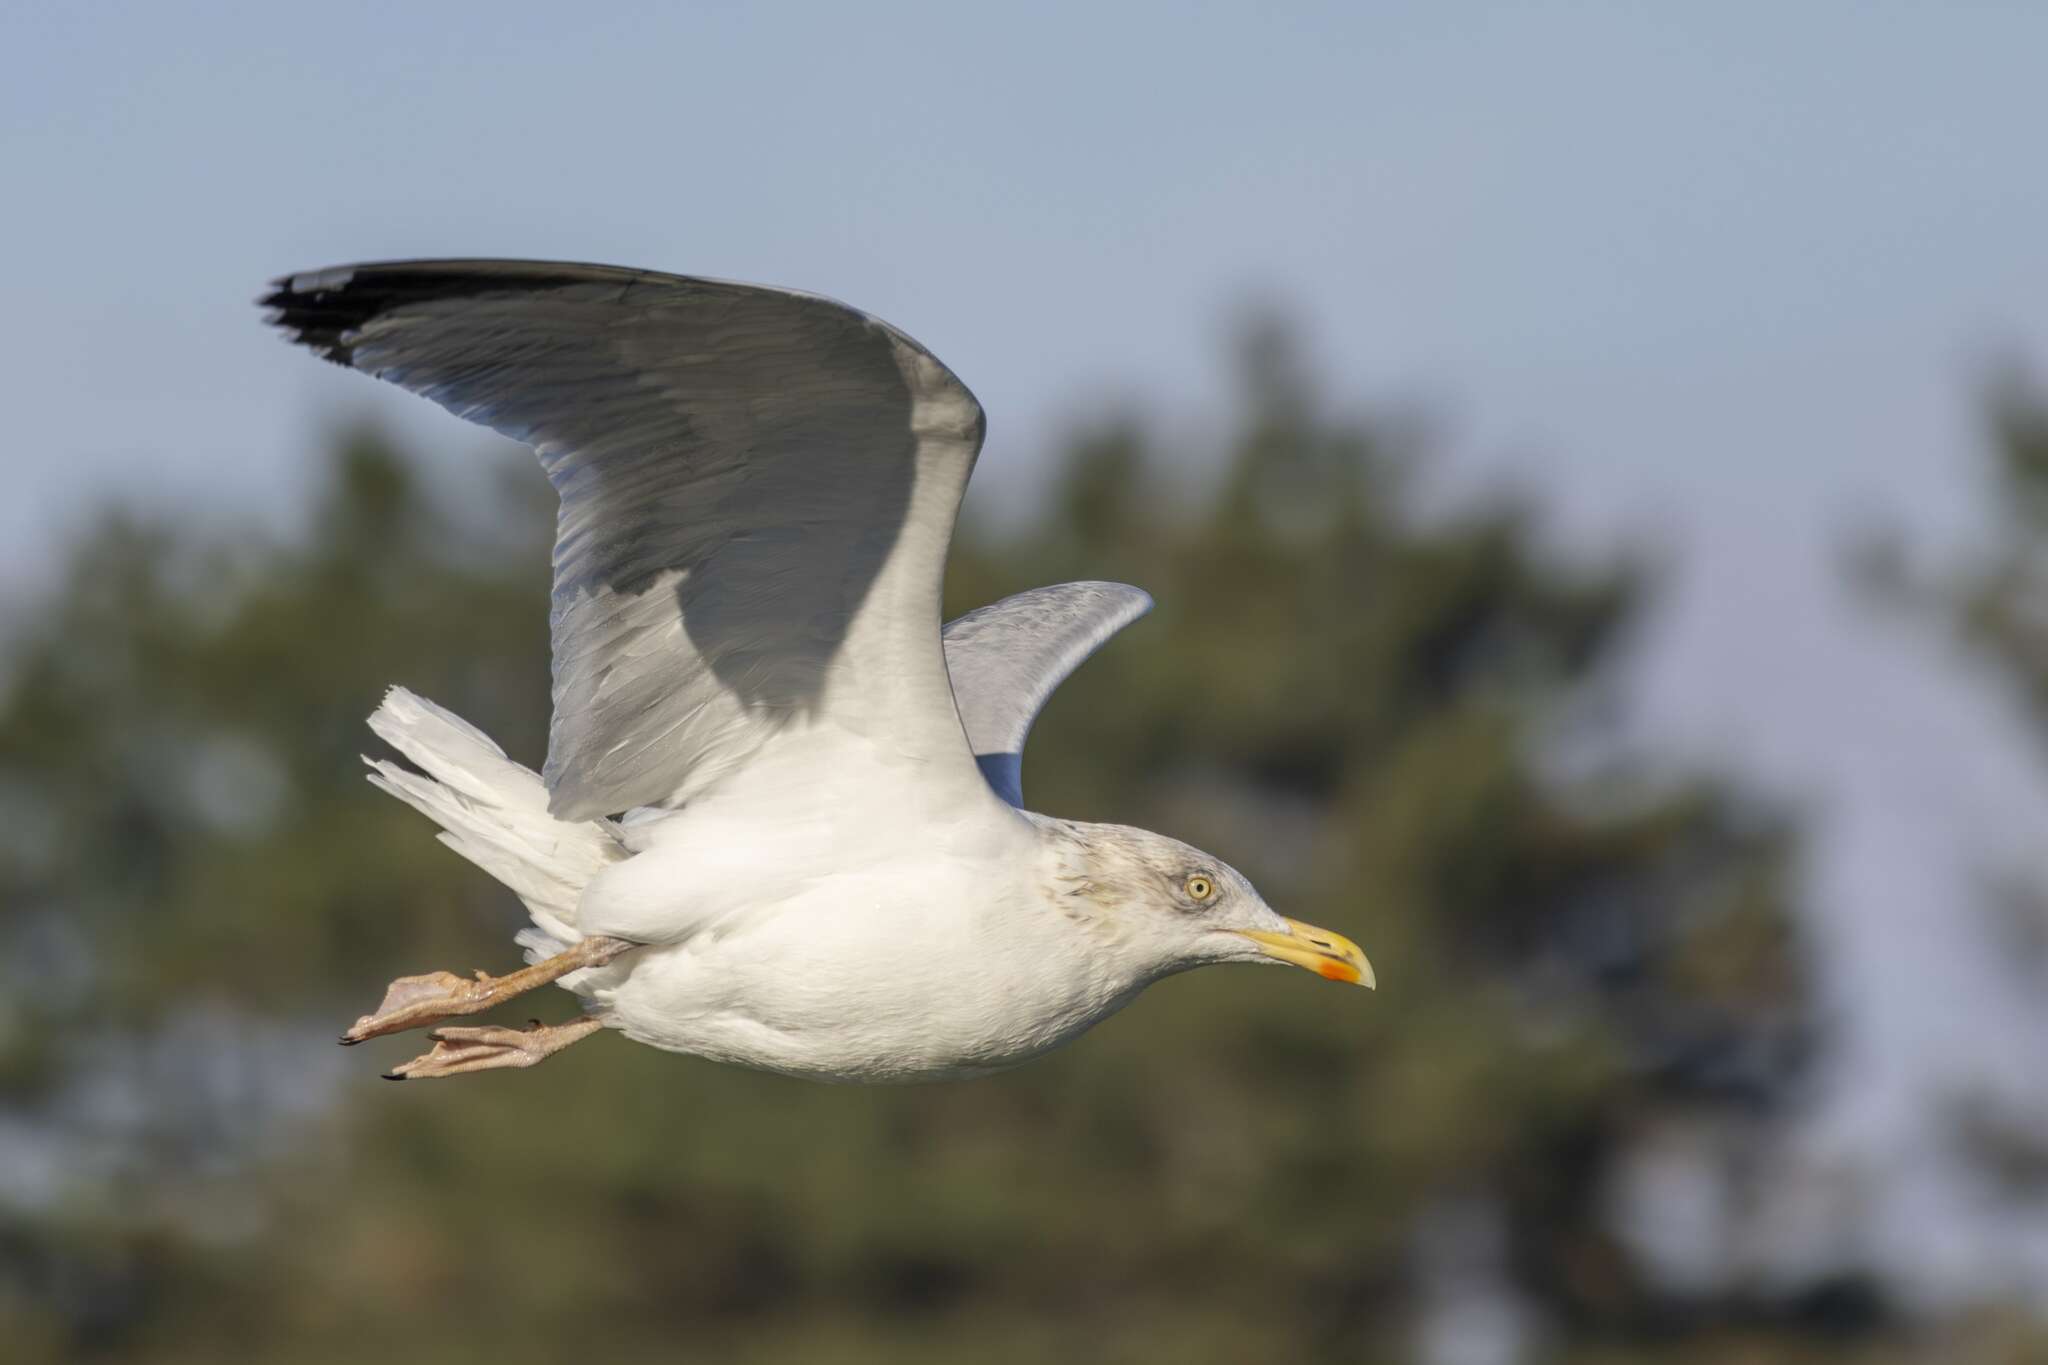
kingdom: Animalia
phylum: Chordata
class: Aves
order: Charadriiformes
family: Laridae
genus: Larus
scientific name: Larus argentatus
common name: Herring gull
